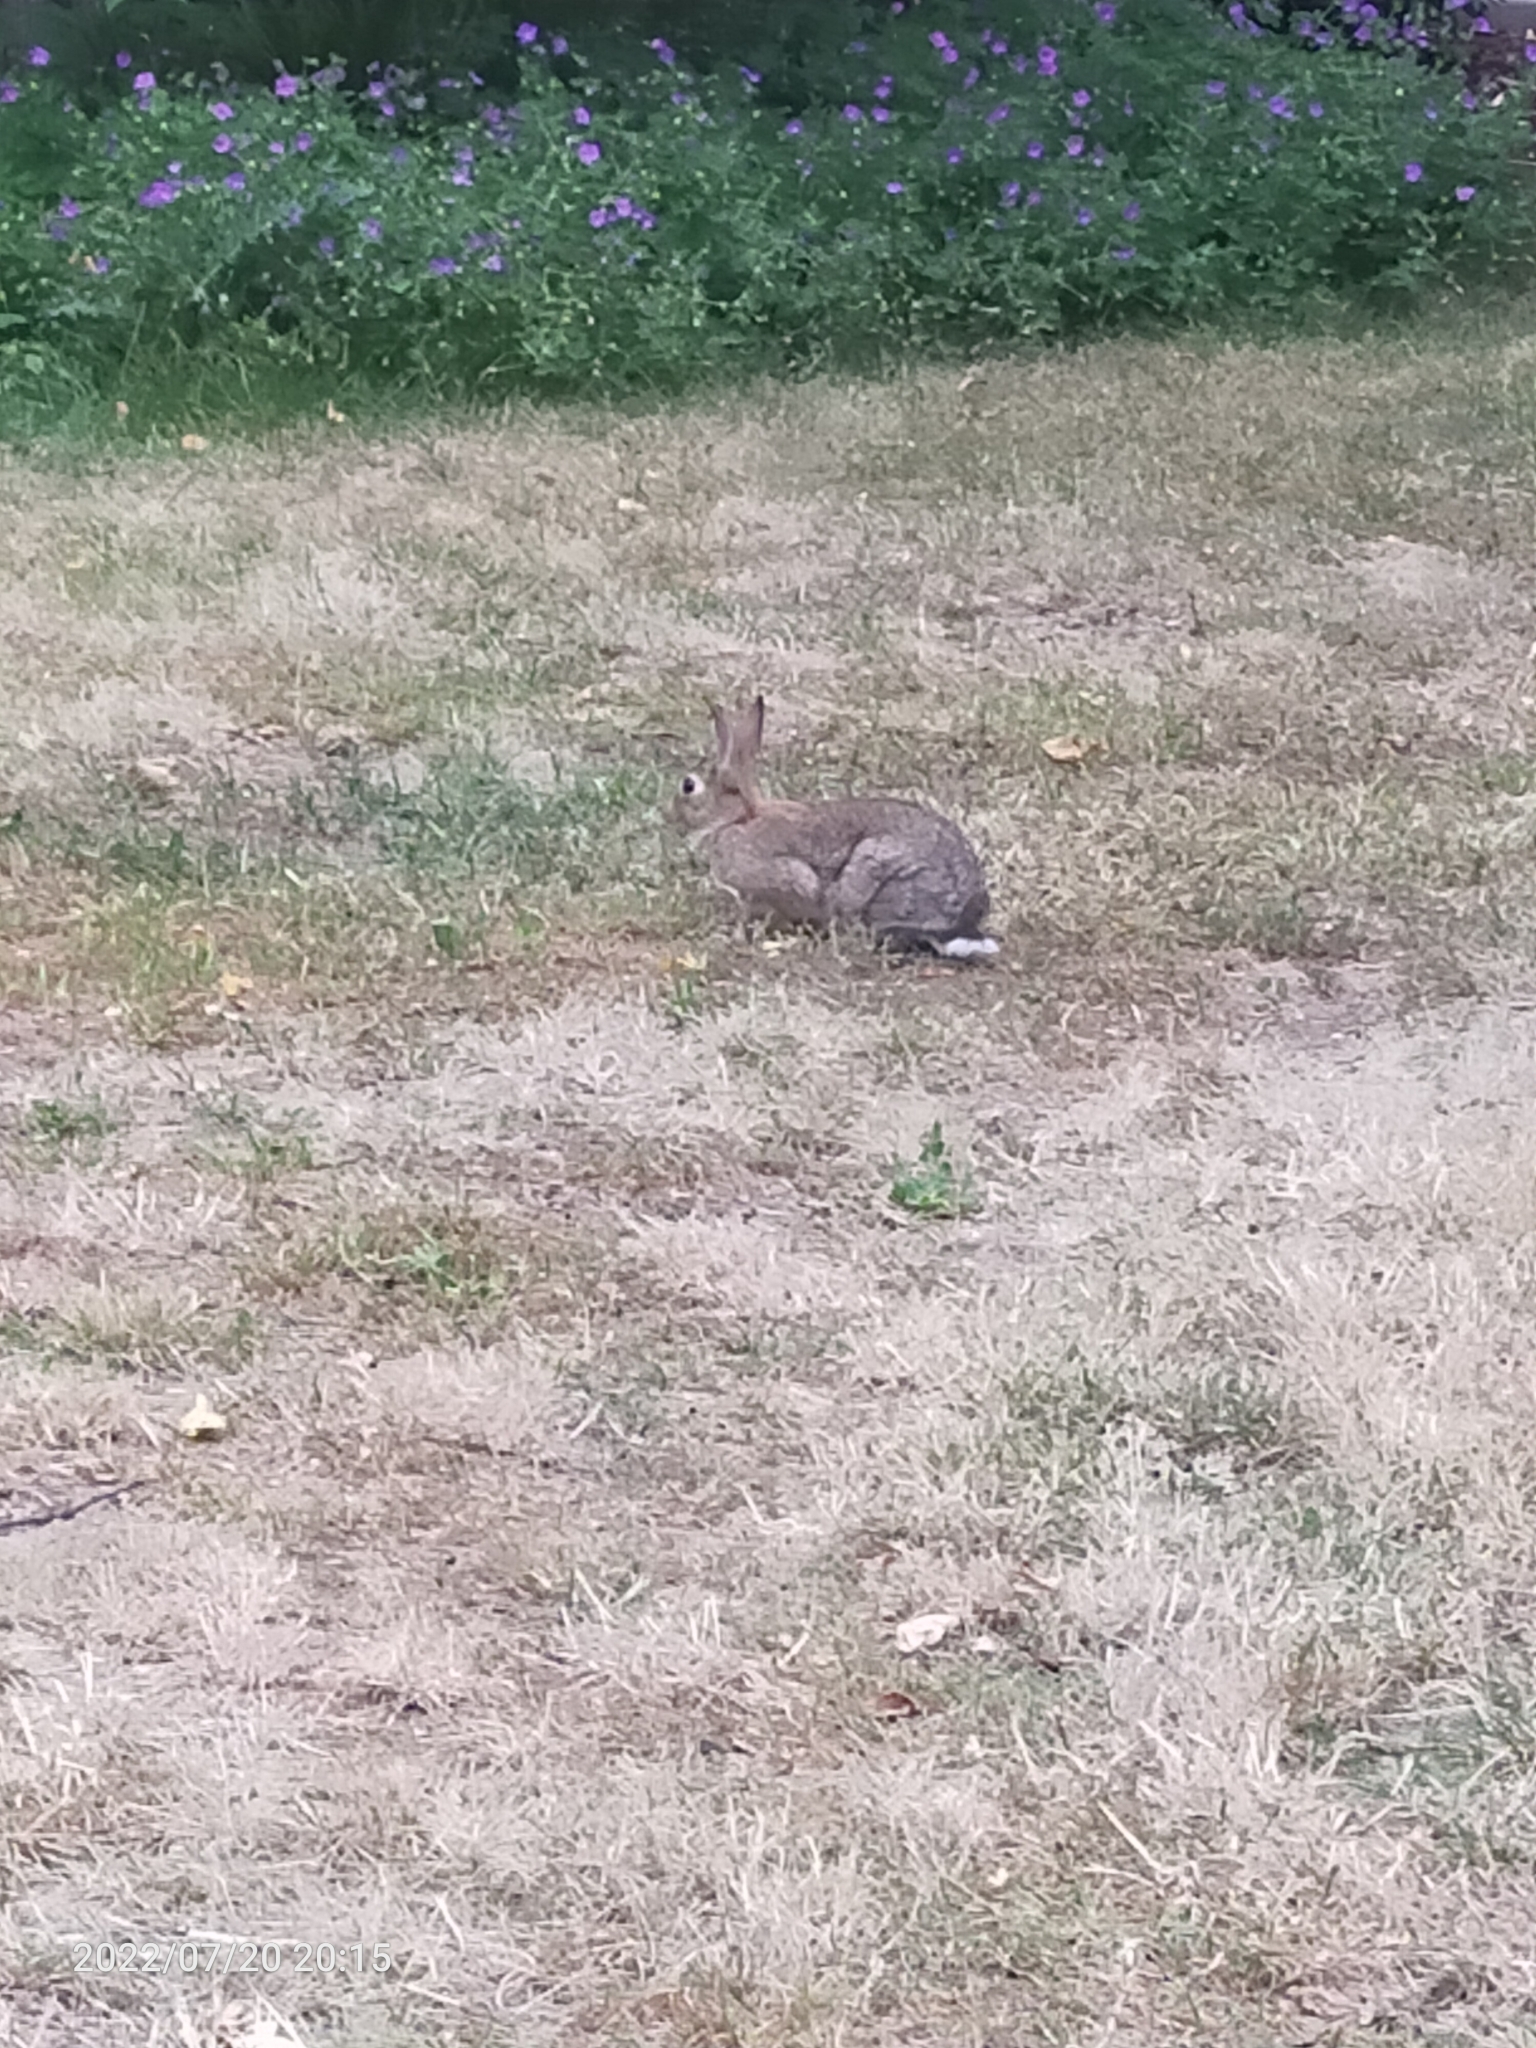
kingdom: Animalia
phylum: Chordata
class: Mammalia
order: Lagomorpha
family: Leporidae
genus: Oryctolagus
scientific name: Oryctolagus cuniculus
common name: European rabbit
